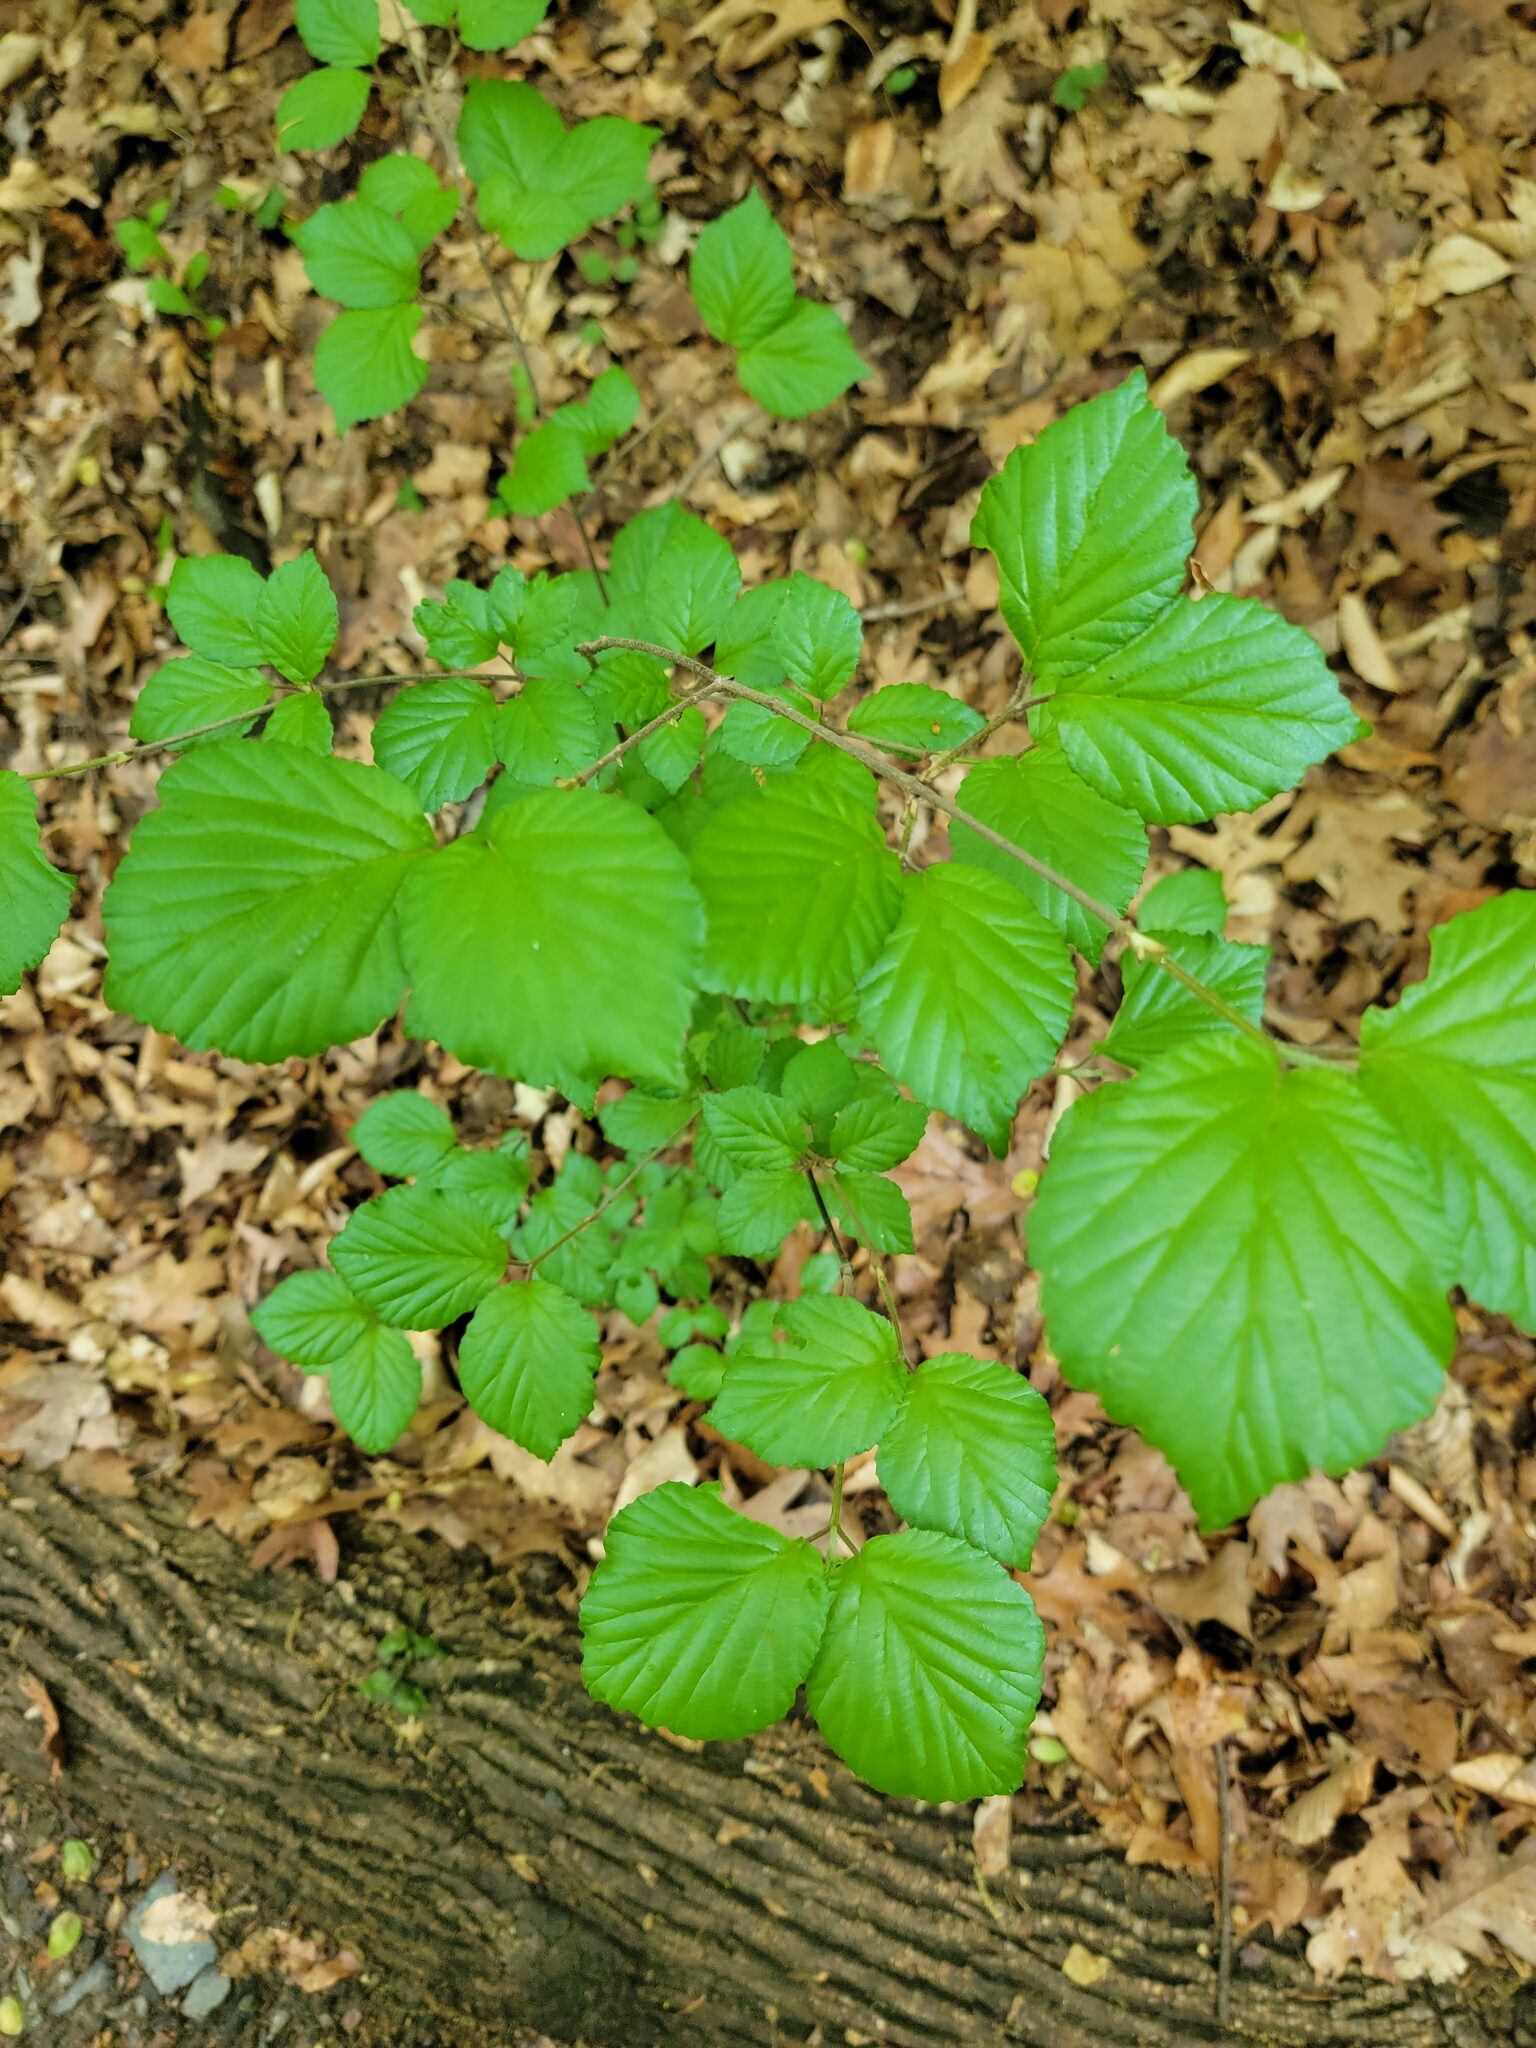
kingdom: Plantae
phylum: Tracheophyta
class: Magnoliopsida
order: Dipsacales
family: Viburnaceae
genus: Viburnum
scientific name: Viburnum dilatatum
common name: Linden arrowwood
